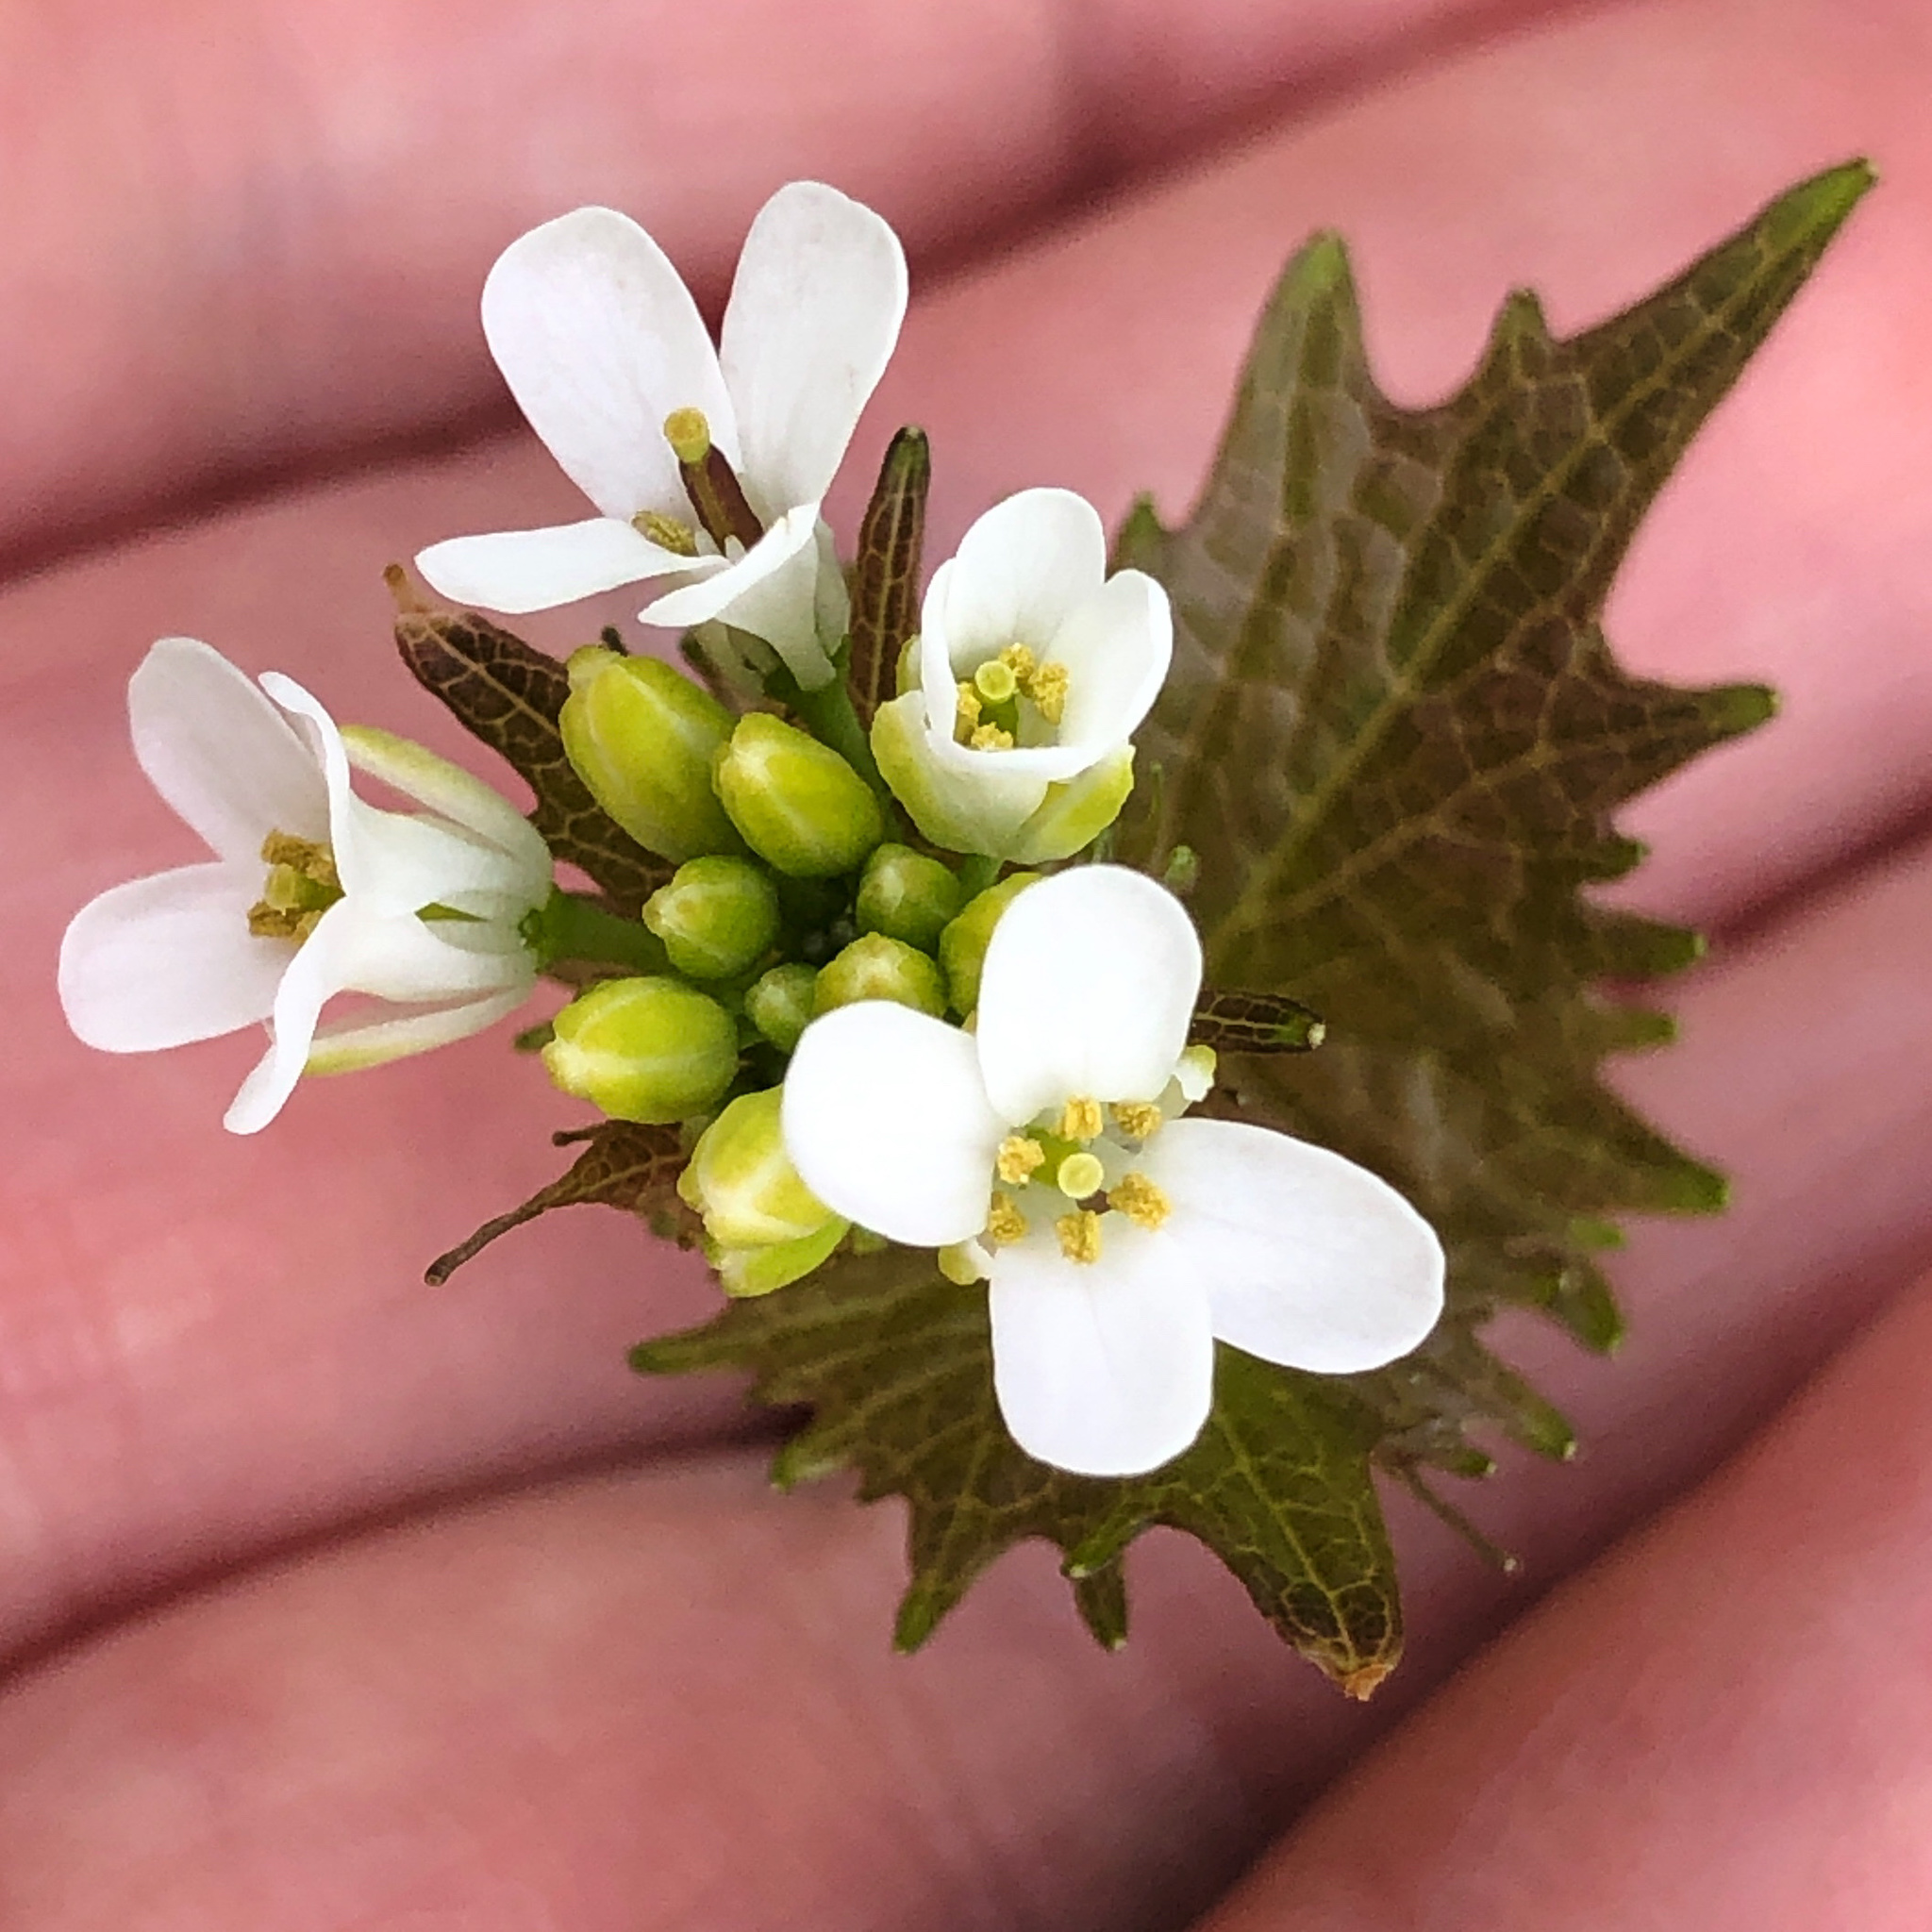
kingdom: Plantae
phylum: Tracheophyta
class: Magnoliopsida
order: Brassicales
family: Brassicaceae
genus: Alliaria
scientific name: Alliaria petiolata
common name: Garlic mustard
